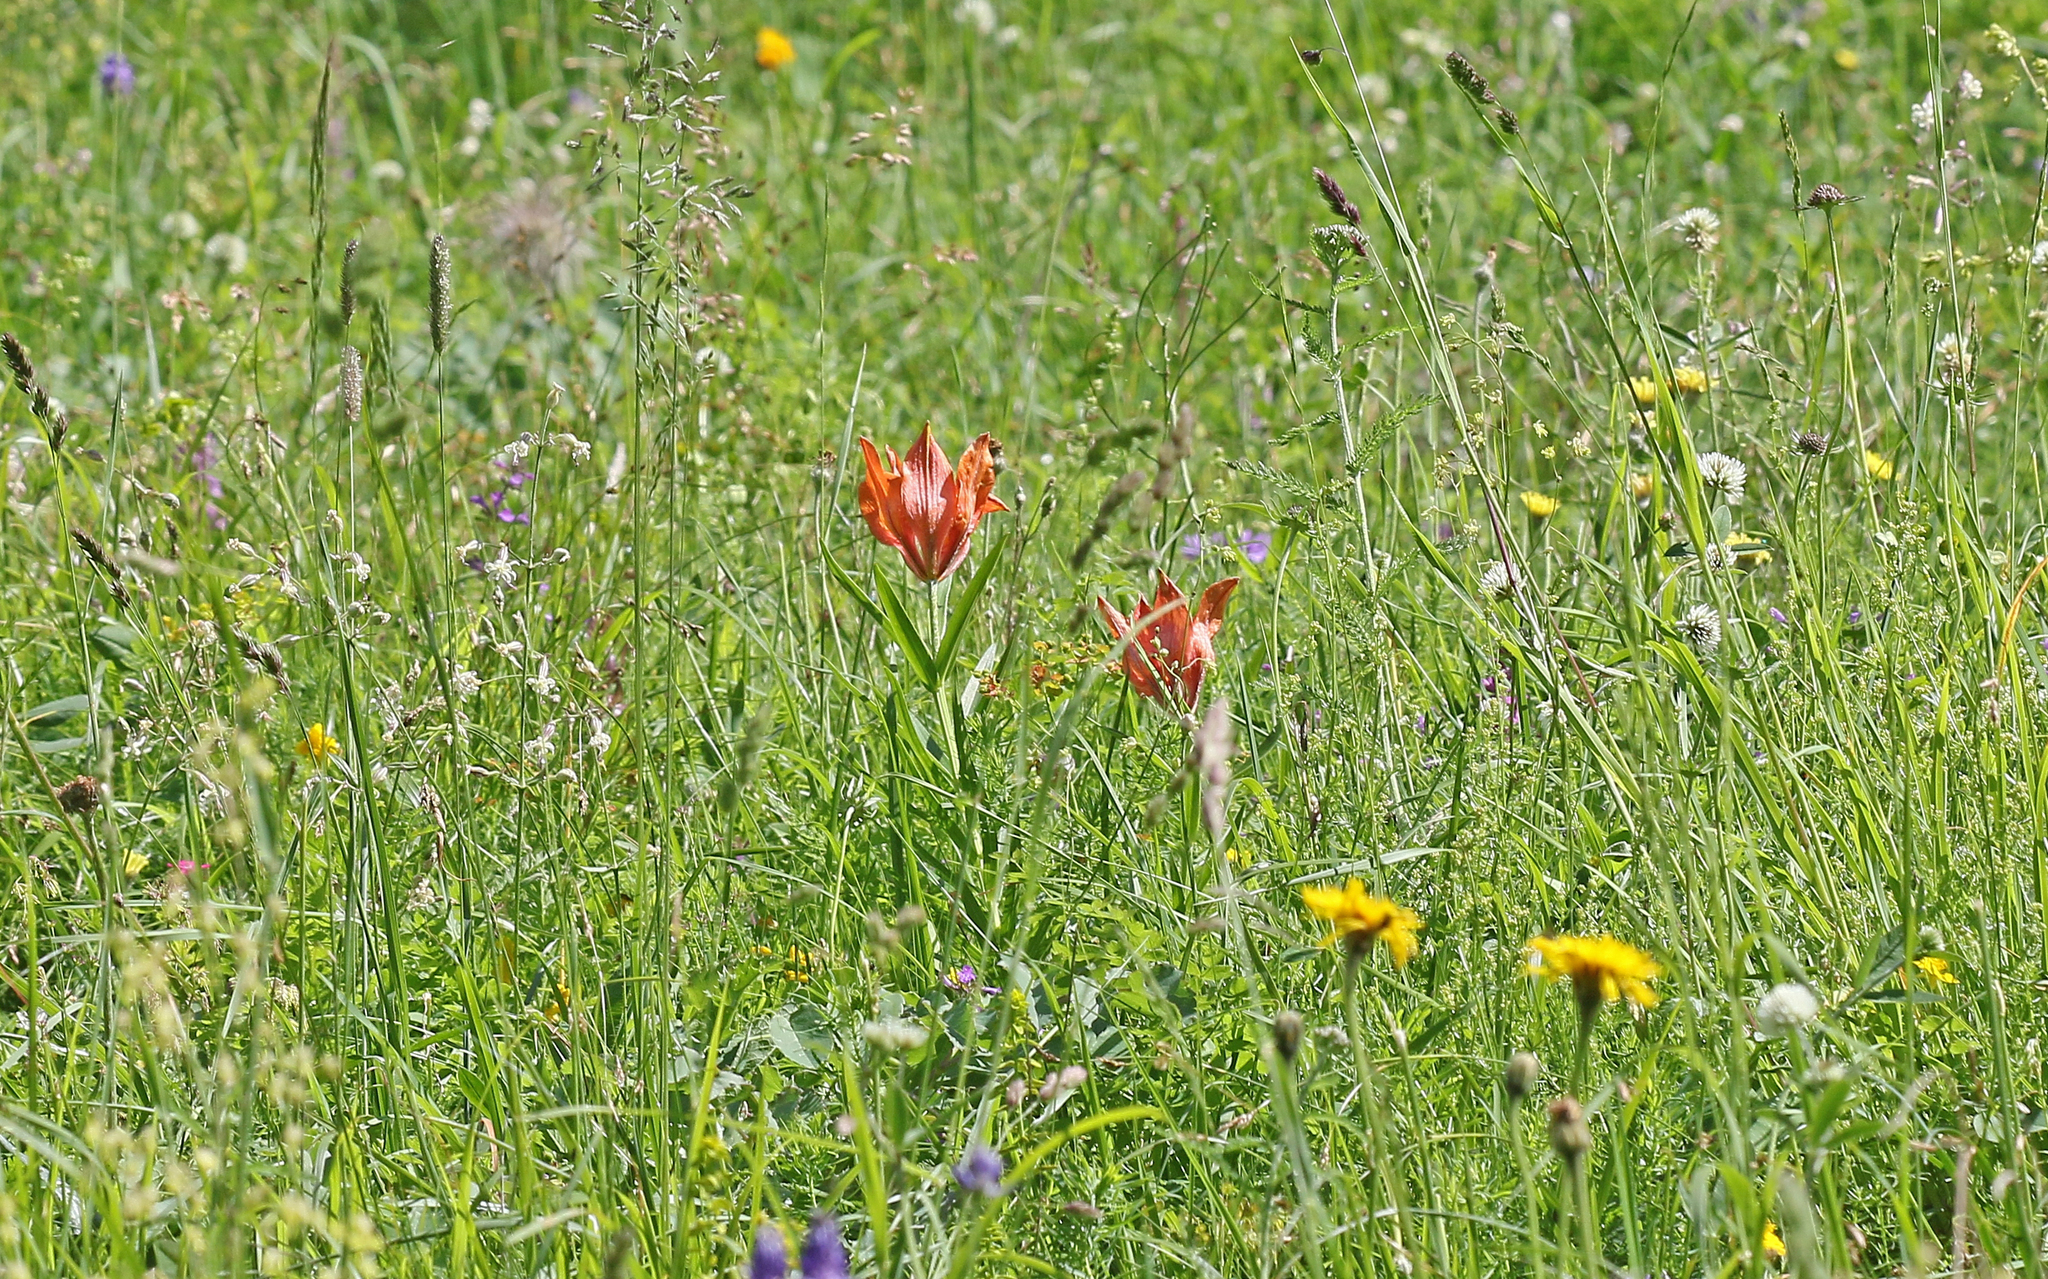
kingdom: Plantae
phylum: Tracheophyta
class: Liliopsida
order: Liliales
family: Liliaceae
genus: Lilium
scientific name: Lilium bulbiferum
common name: Orange lily
